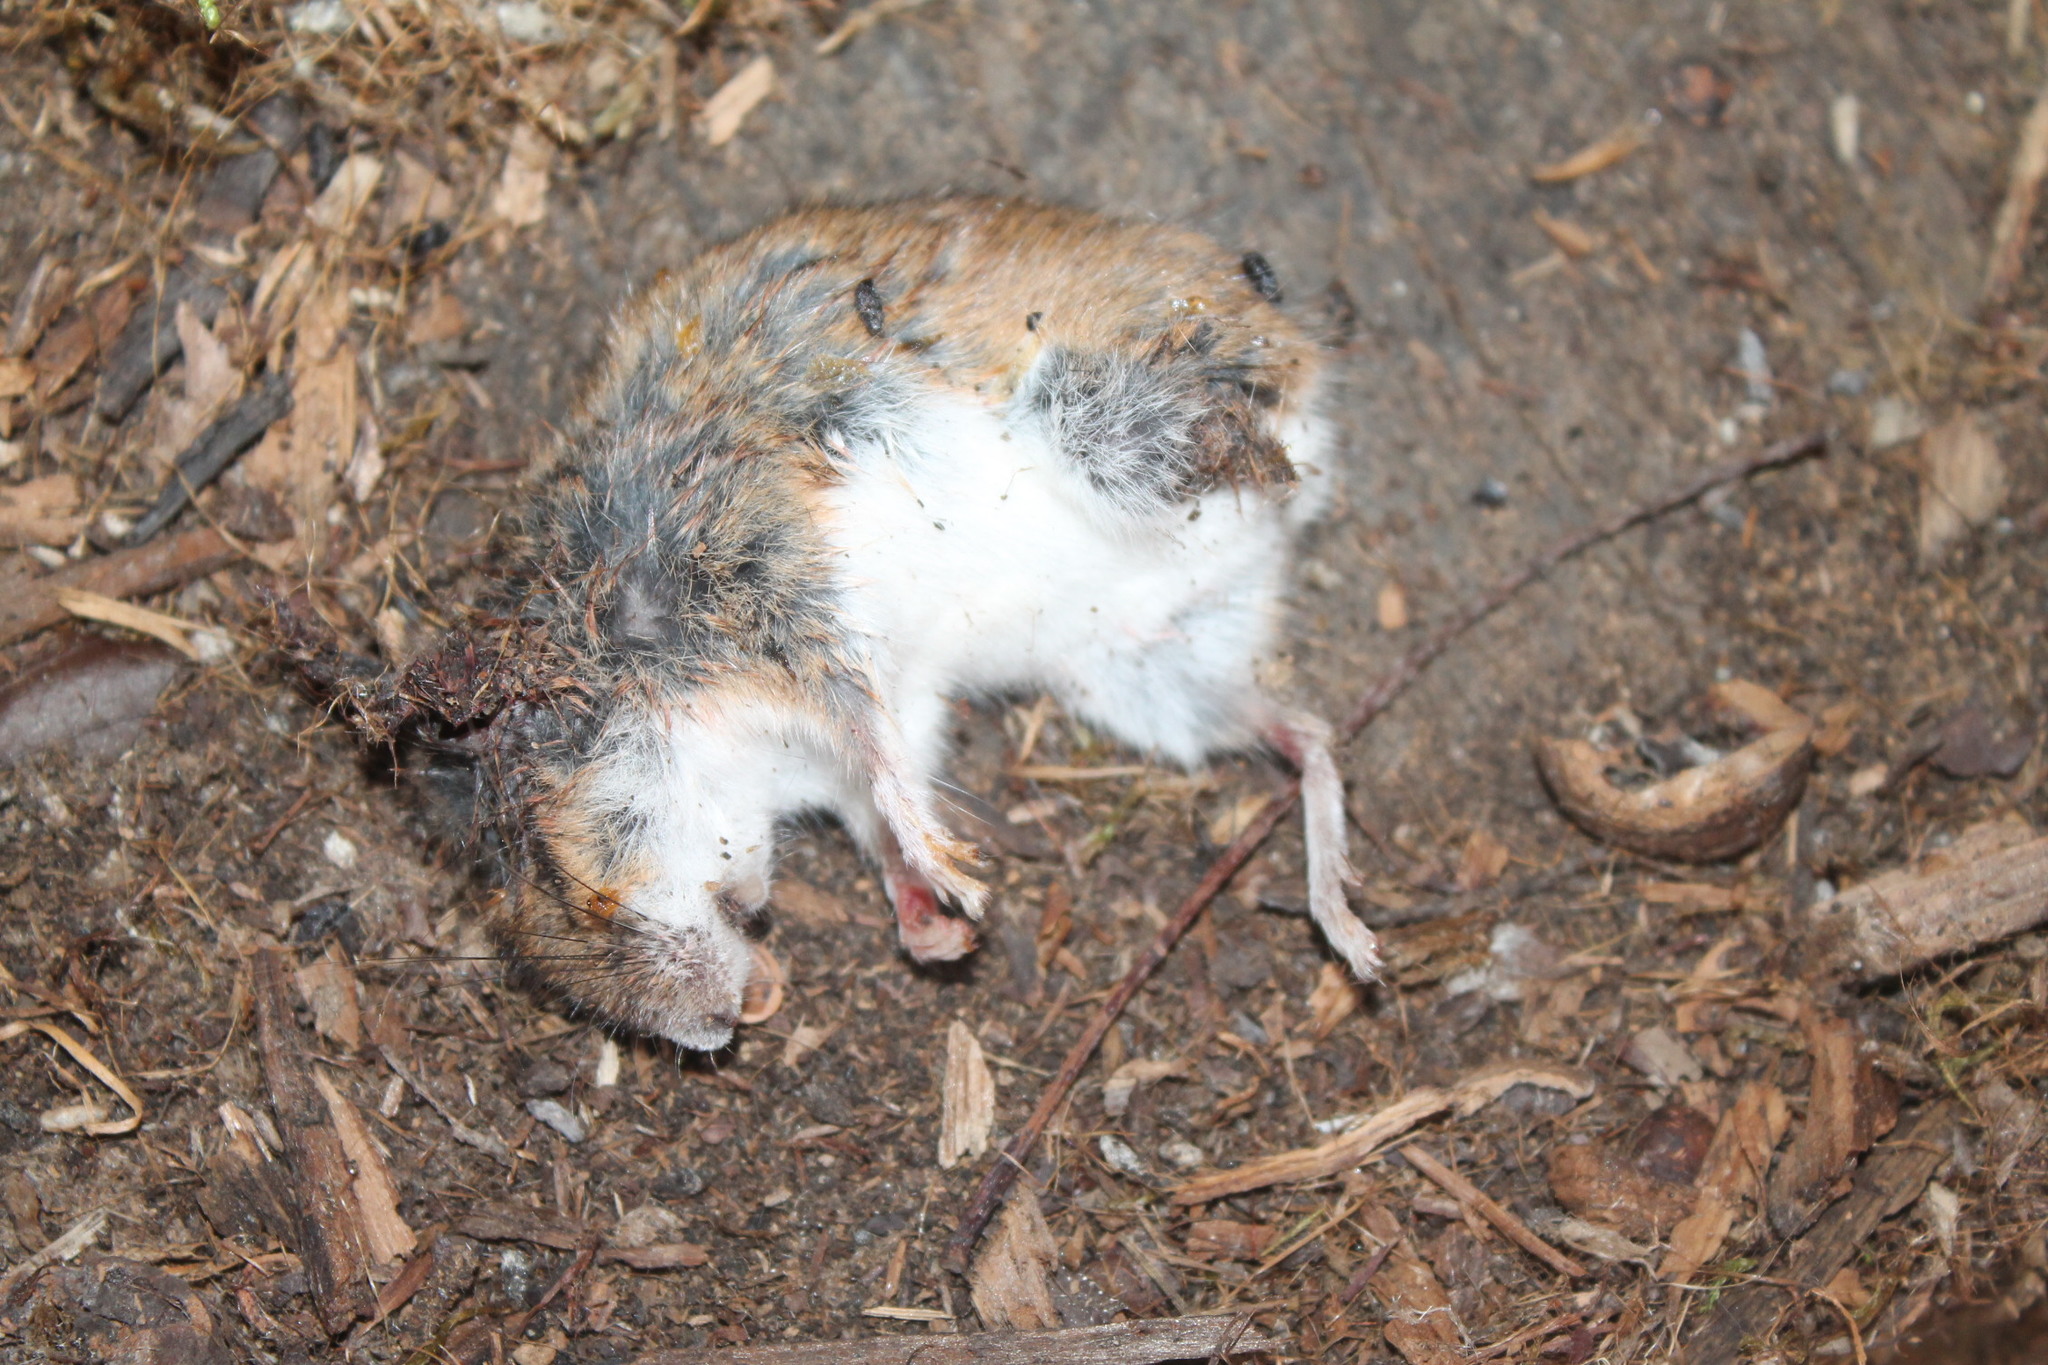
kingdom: Animalia
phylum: Chordata
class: Mammalia
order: Rodentia
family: Cricetidae
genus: Peromyscus
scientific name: Peromyscus leucopus
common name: White-footed deermouse
